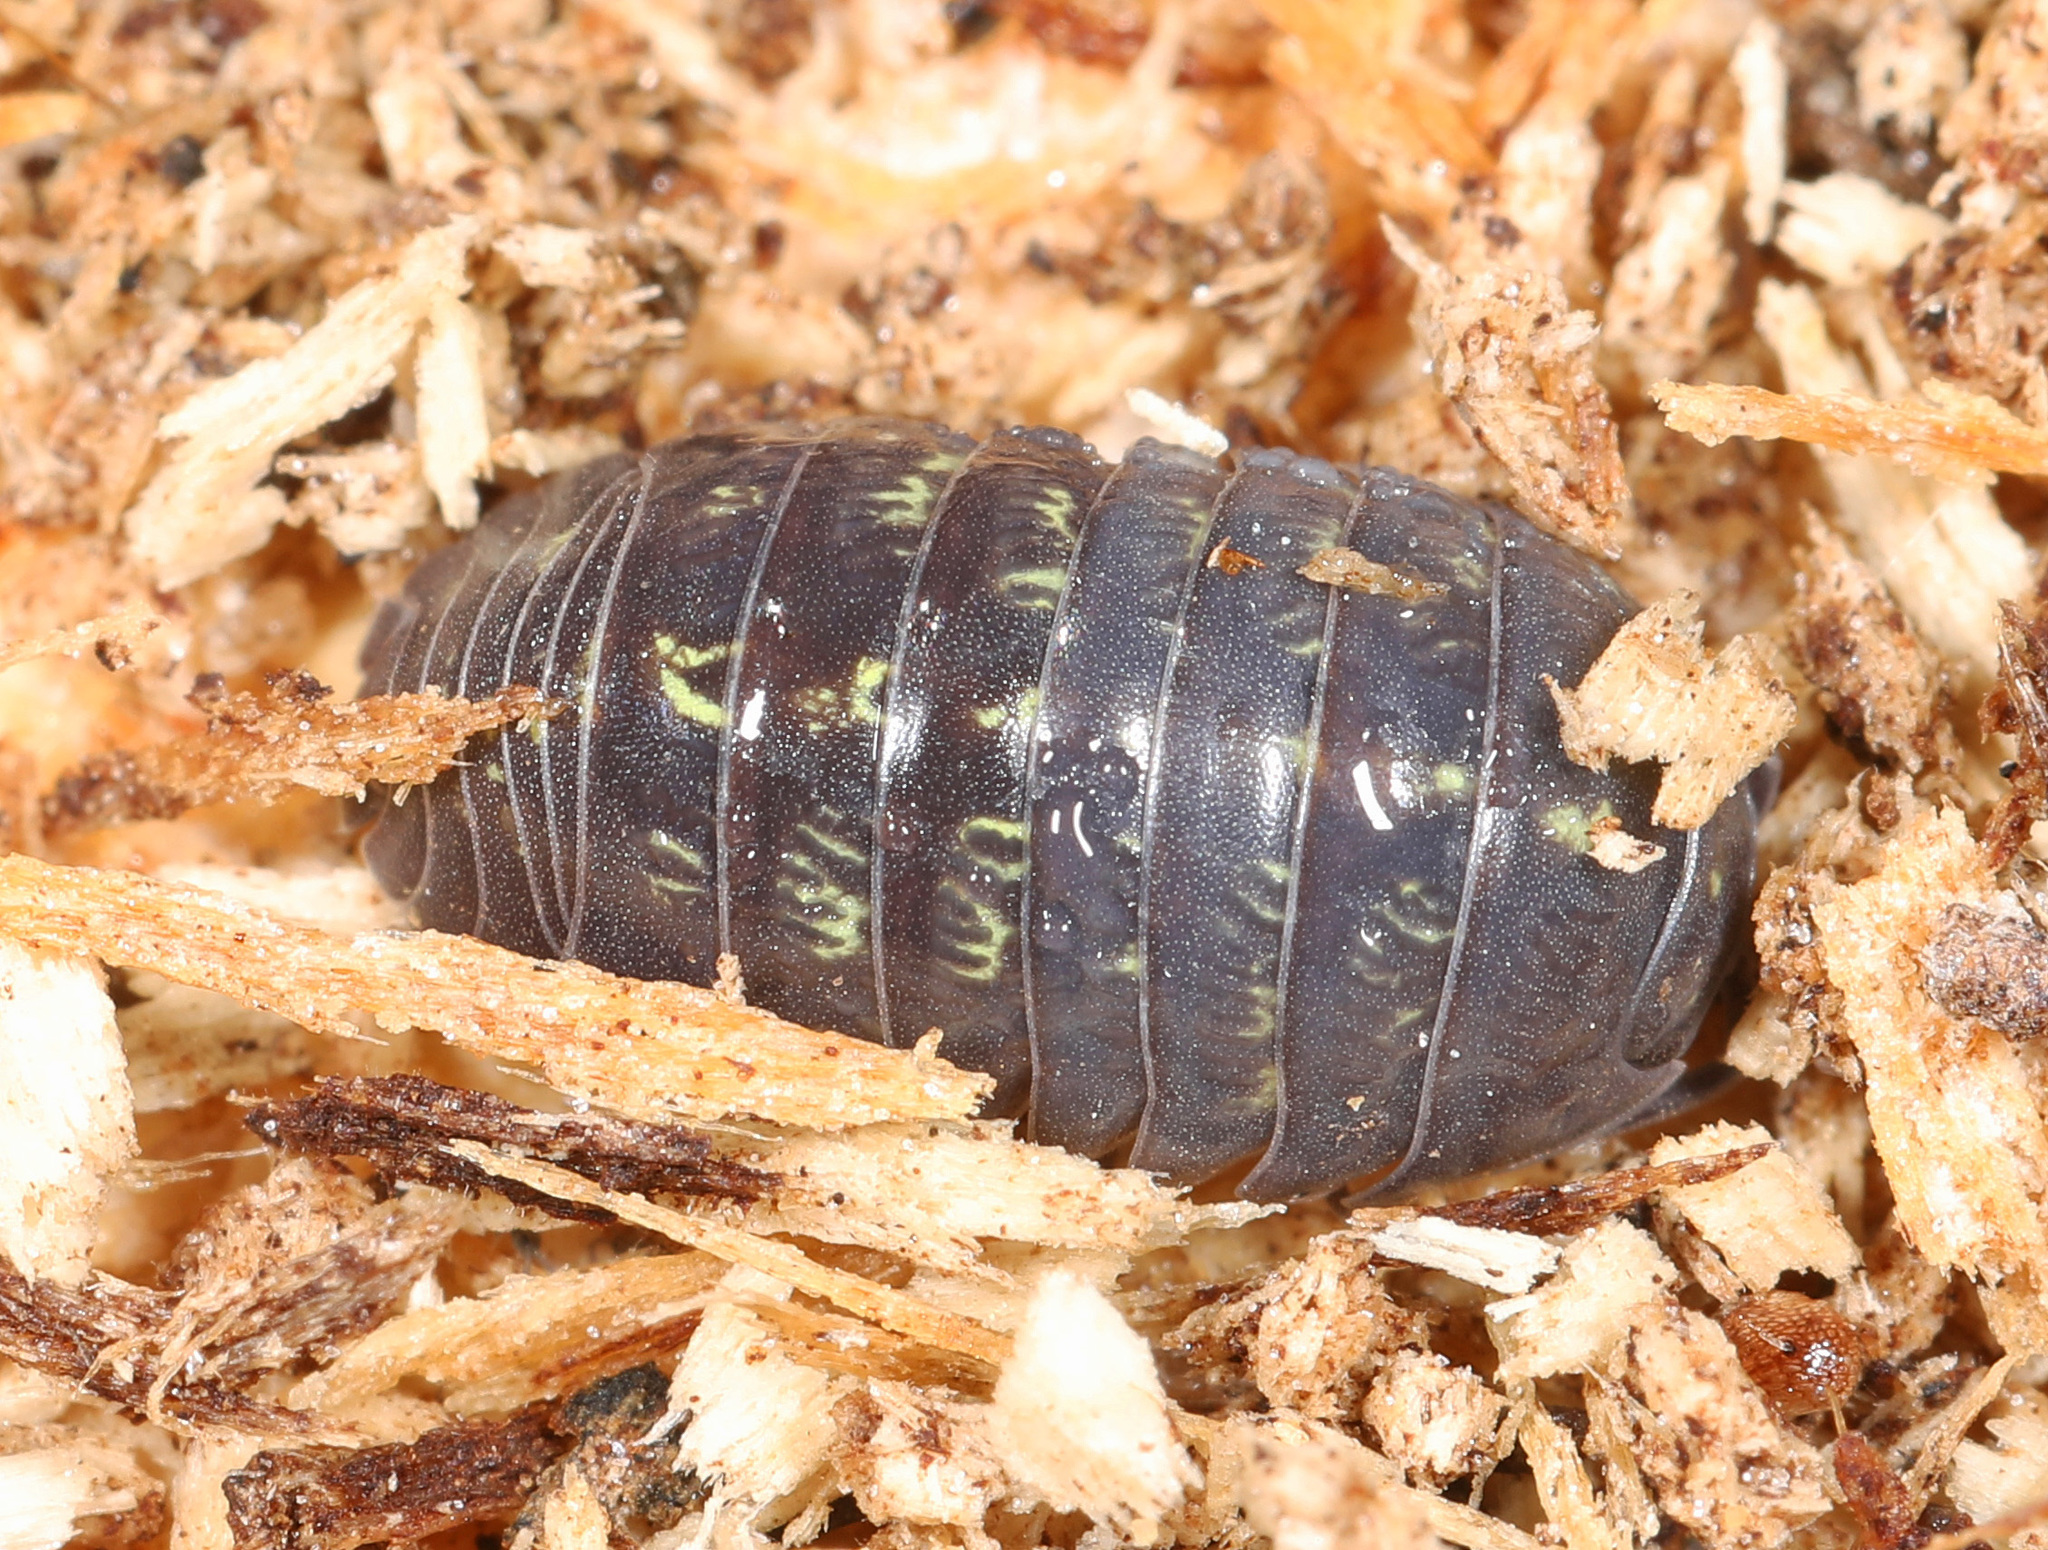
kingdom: Animalia
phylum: Arthropoda
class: Malacostraca
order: Isopoda
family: Armadillidiidae
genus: Armadillidium
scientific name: Armadillidium vulgare
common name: Common pill woodlouse
